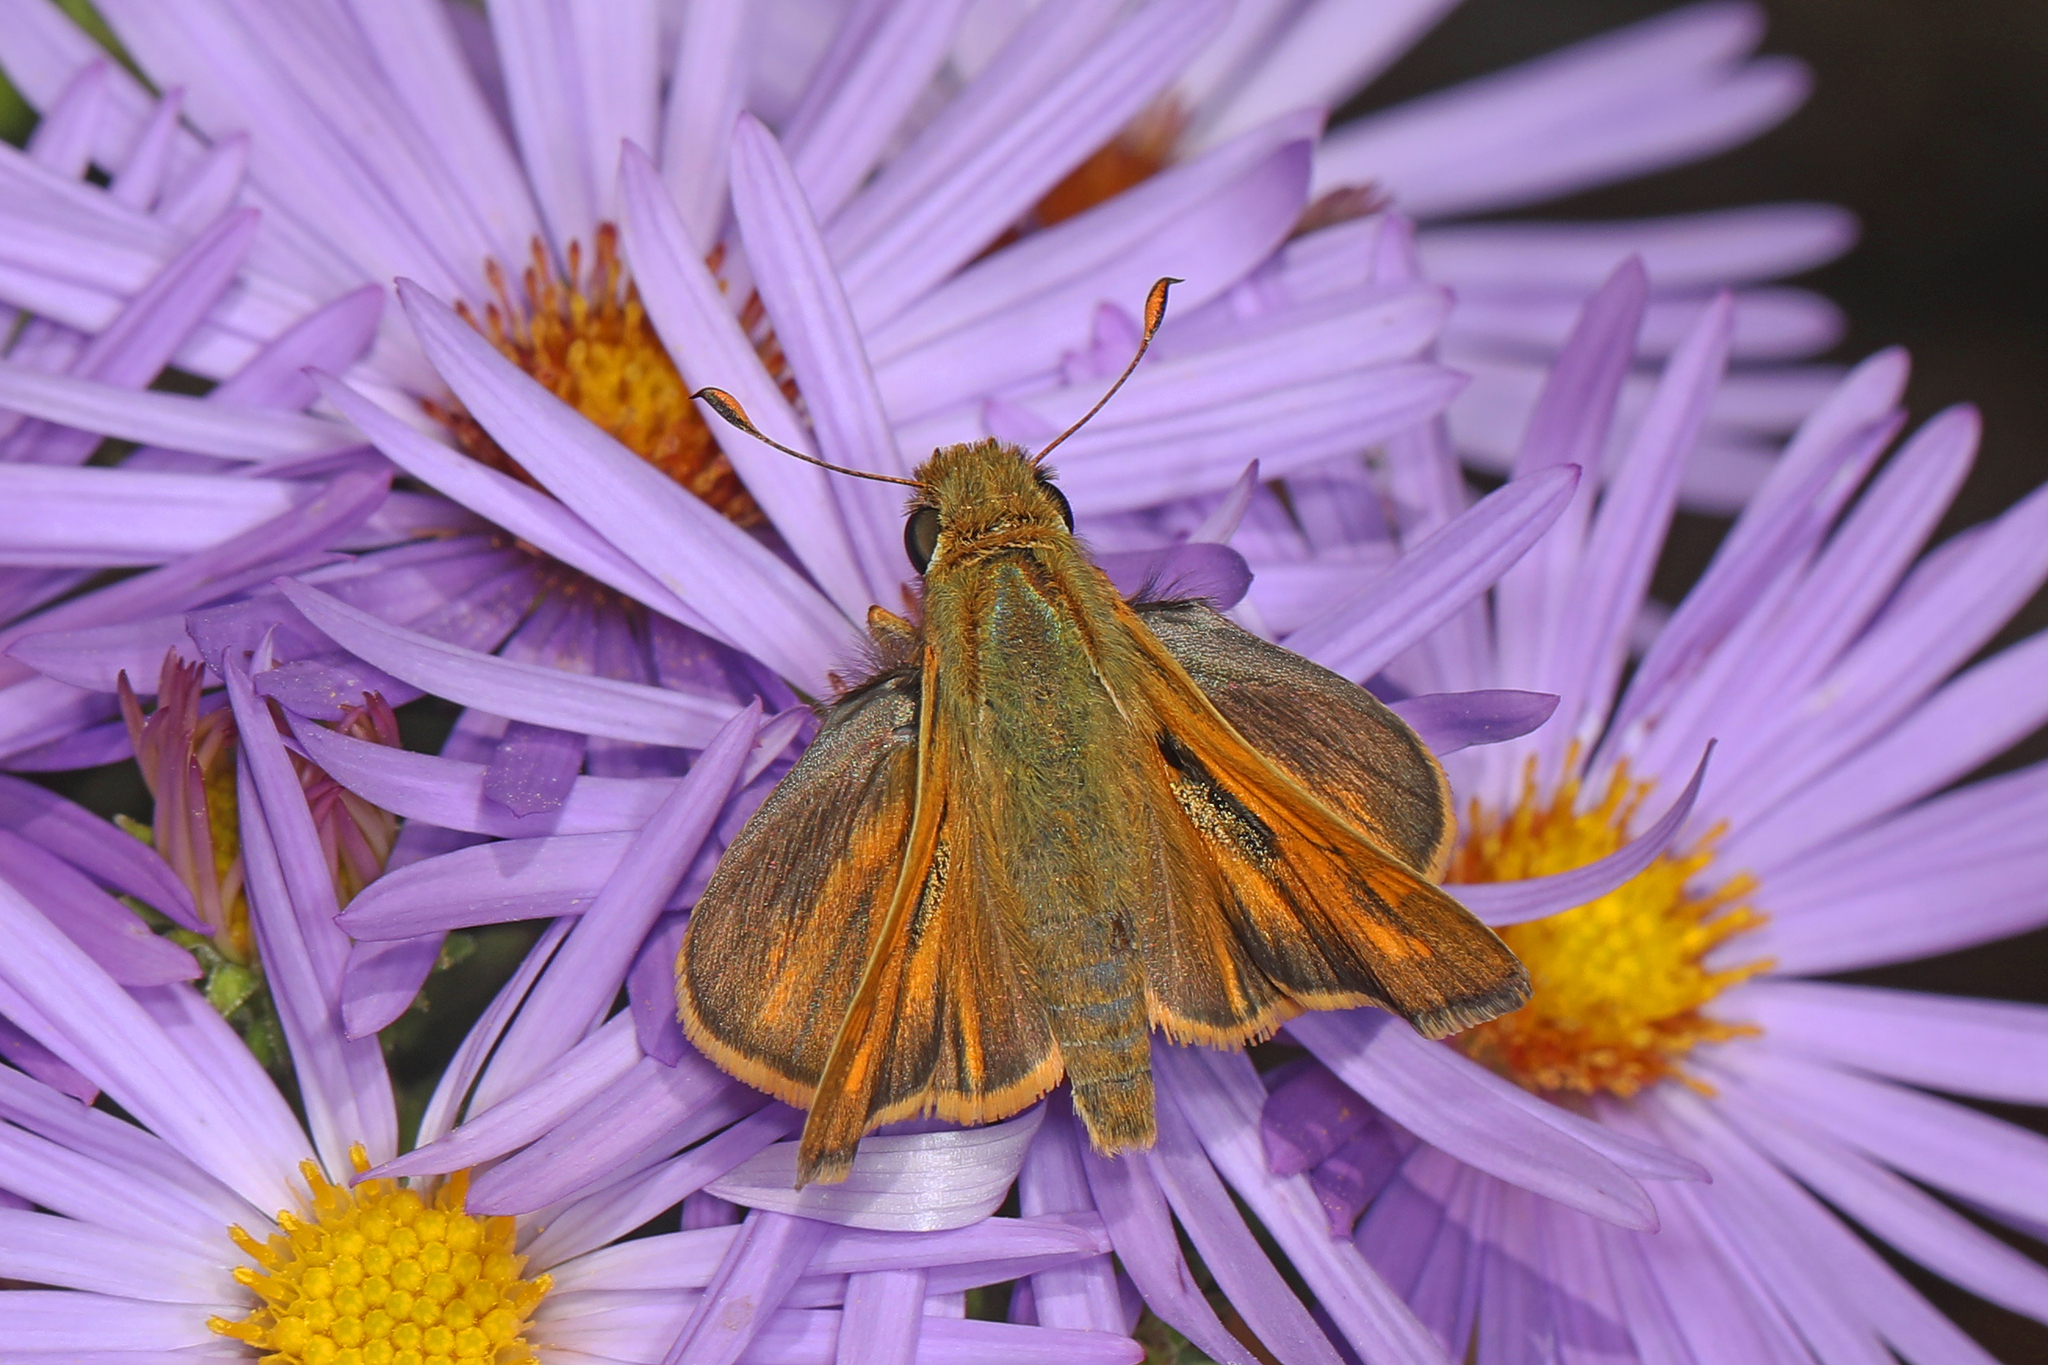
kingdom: Animalia
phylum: Arthropoda
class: Insecta
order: Lepidoptera
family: Hesperiidae
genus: Atalopedes
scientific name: Atalopedes
